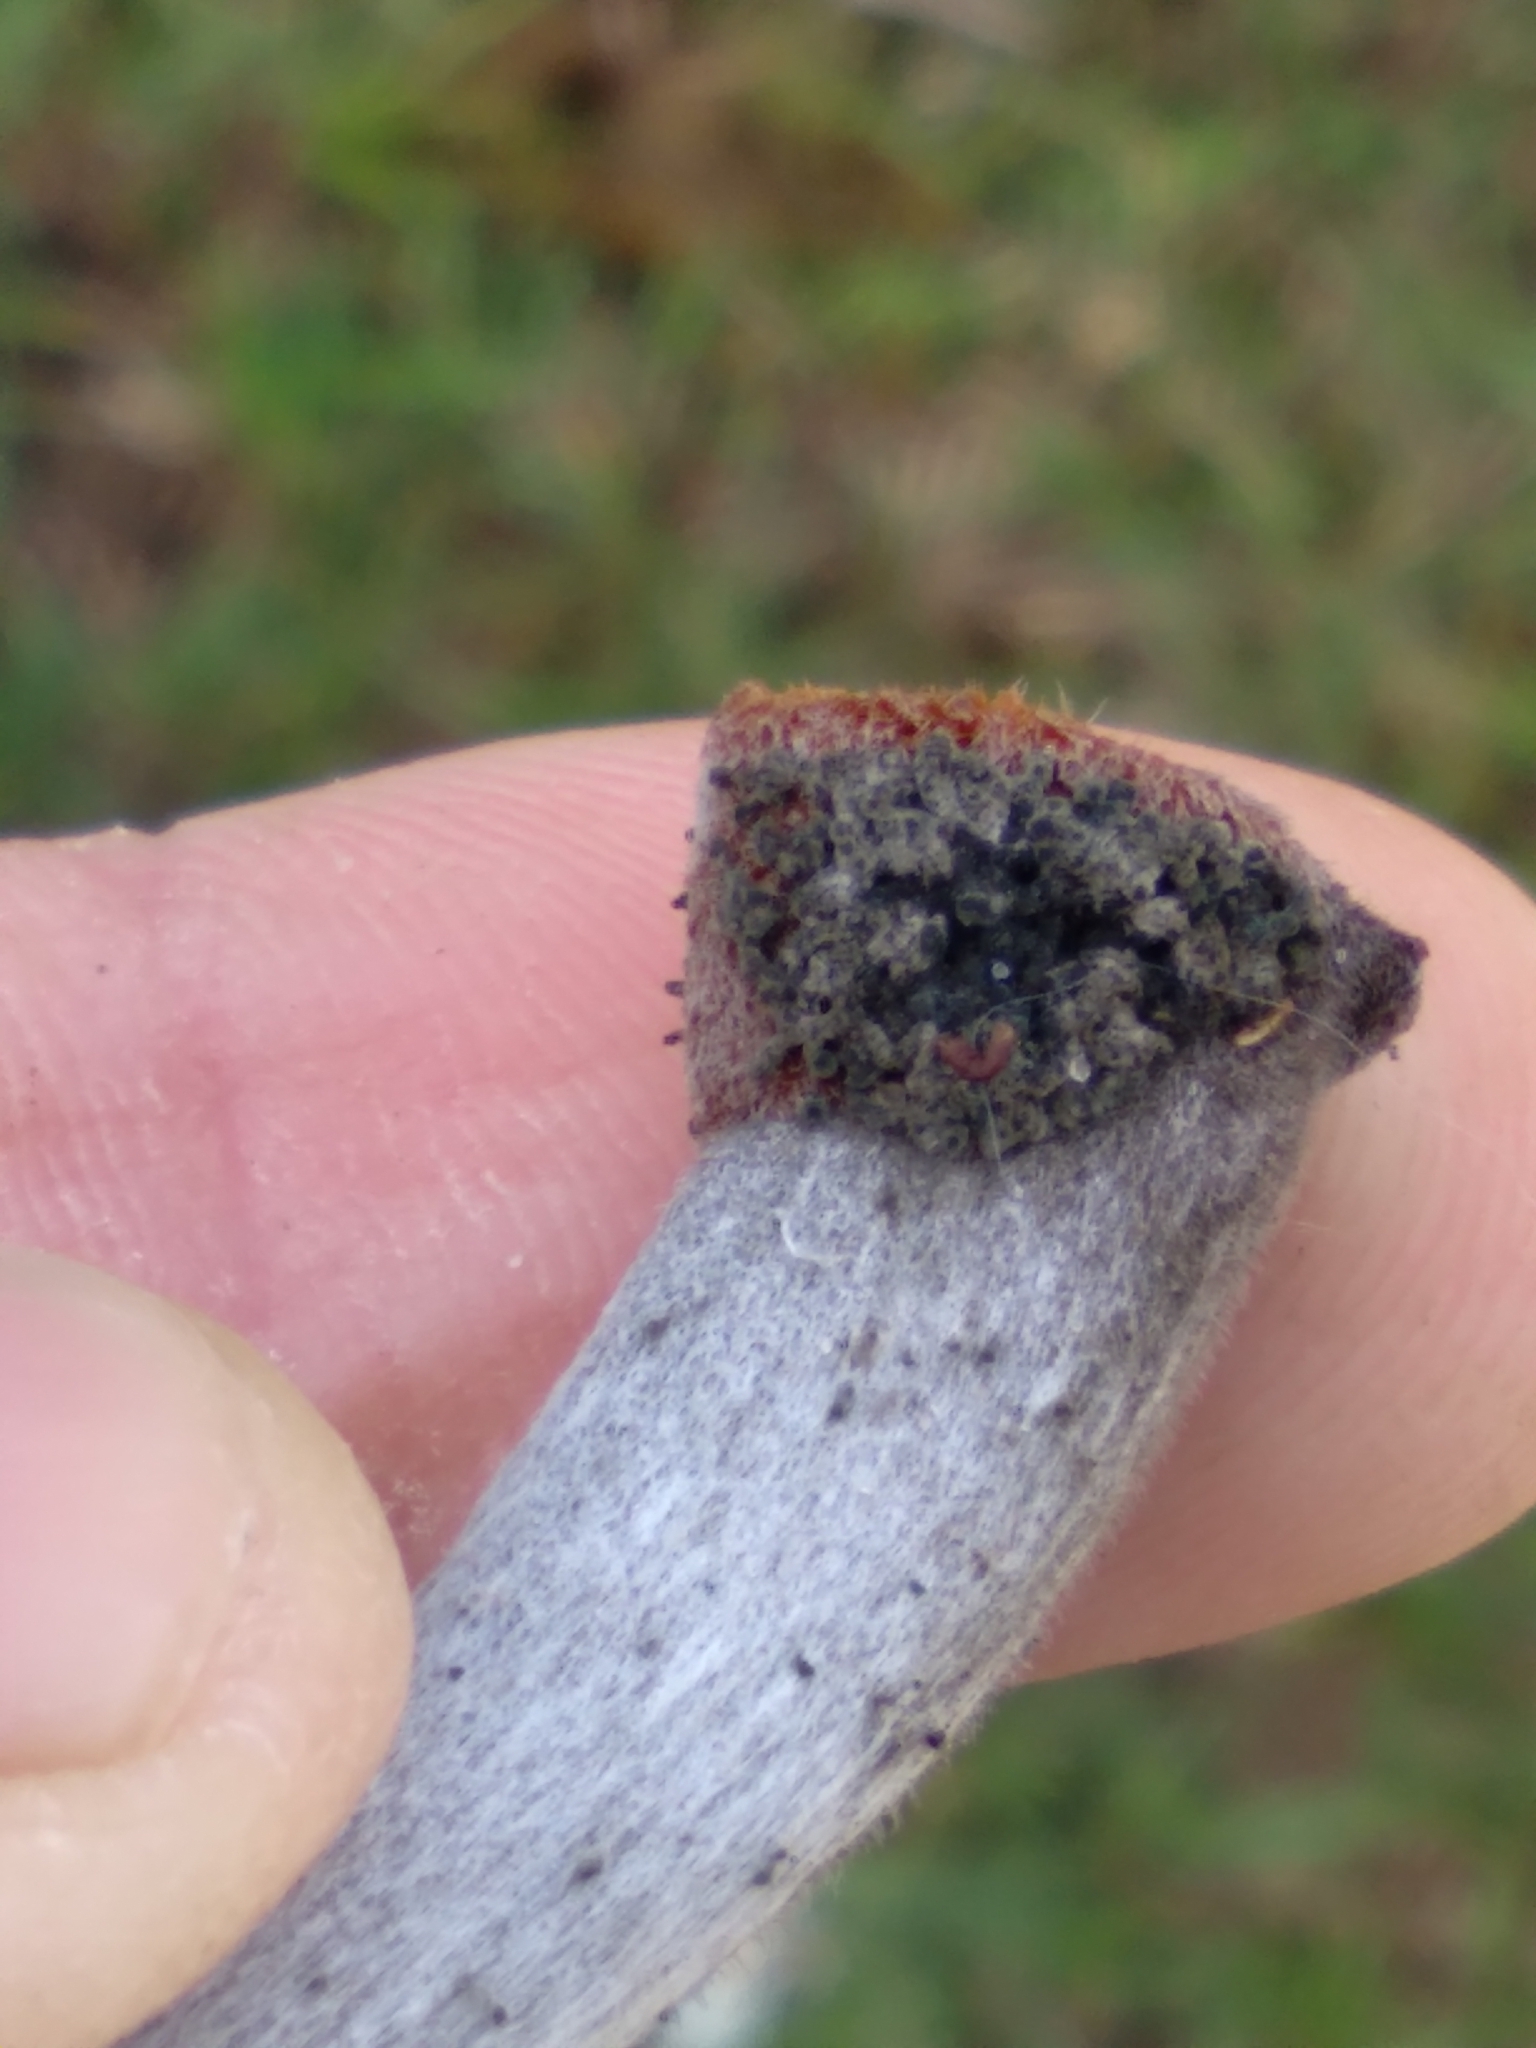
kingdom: Plantae
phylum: Tracheophyta
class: Magnoliopsida
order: Rosales
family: Urticaceae
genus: Cecropia
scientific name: Cecropia pachystachya
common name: Ambay pumpwood
